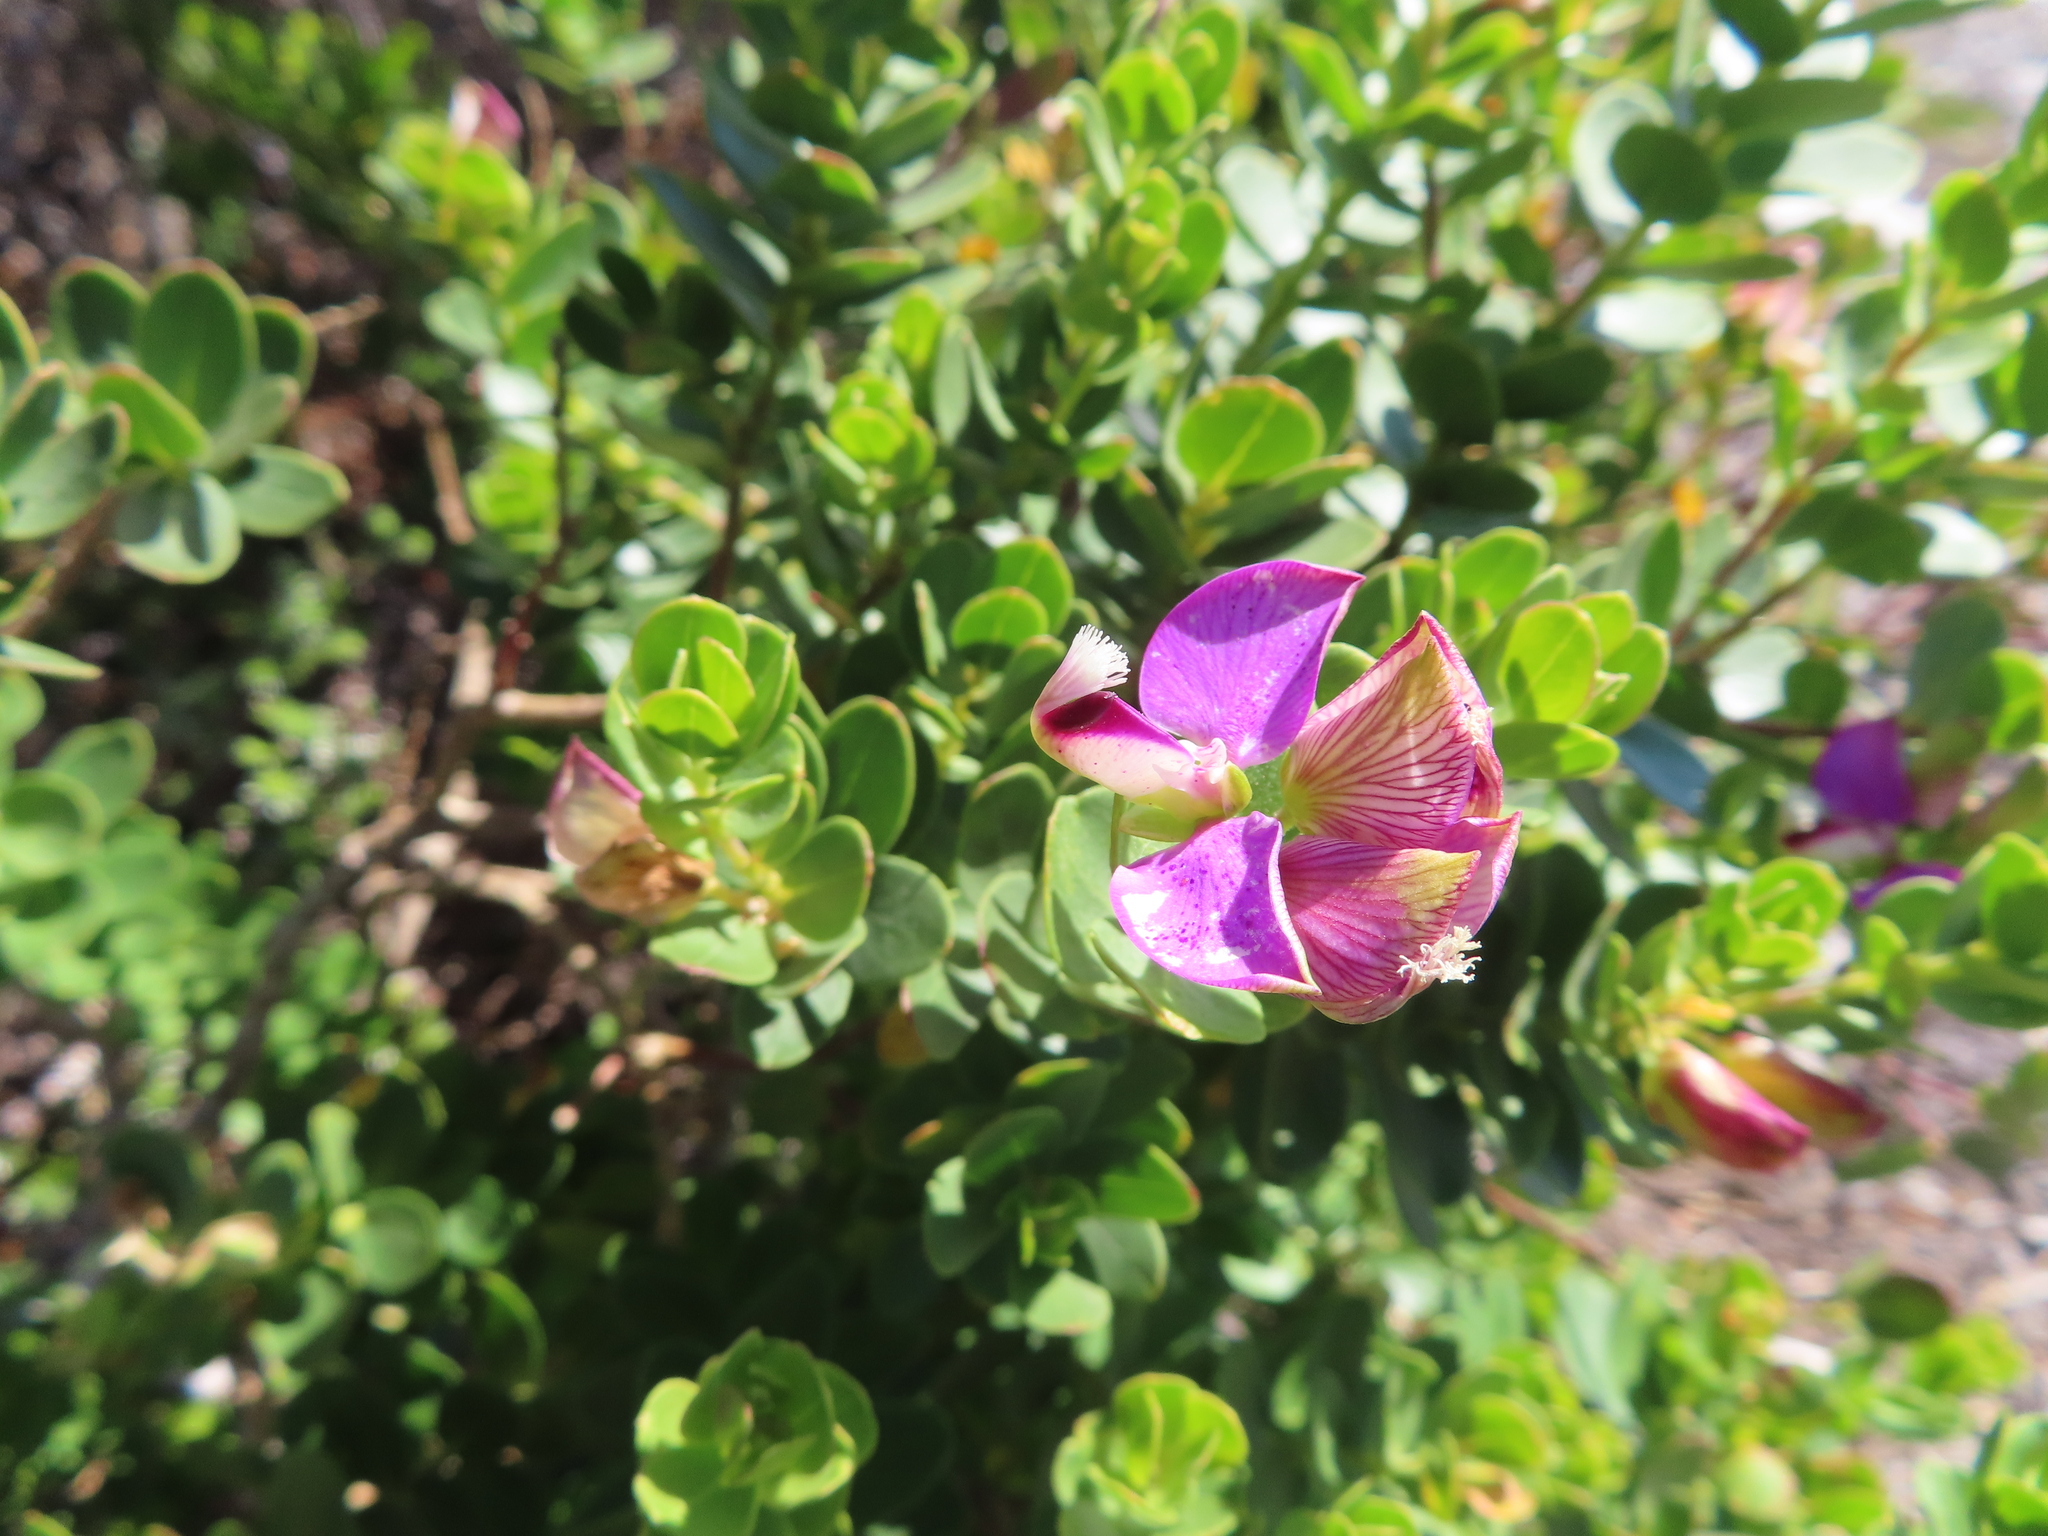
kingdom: Plantae
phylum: Tracheophyta
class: Magnoliopsida
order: Fabales
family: Polygalaceae
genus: Polygala
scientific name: Polygala myrtifolia
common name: Myrtle-leaf milkwort
